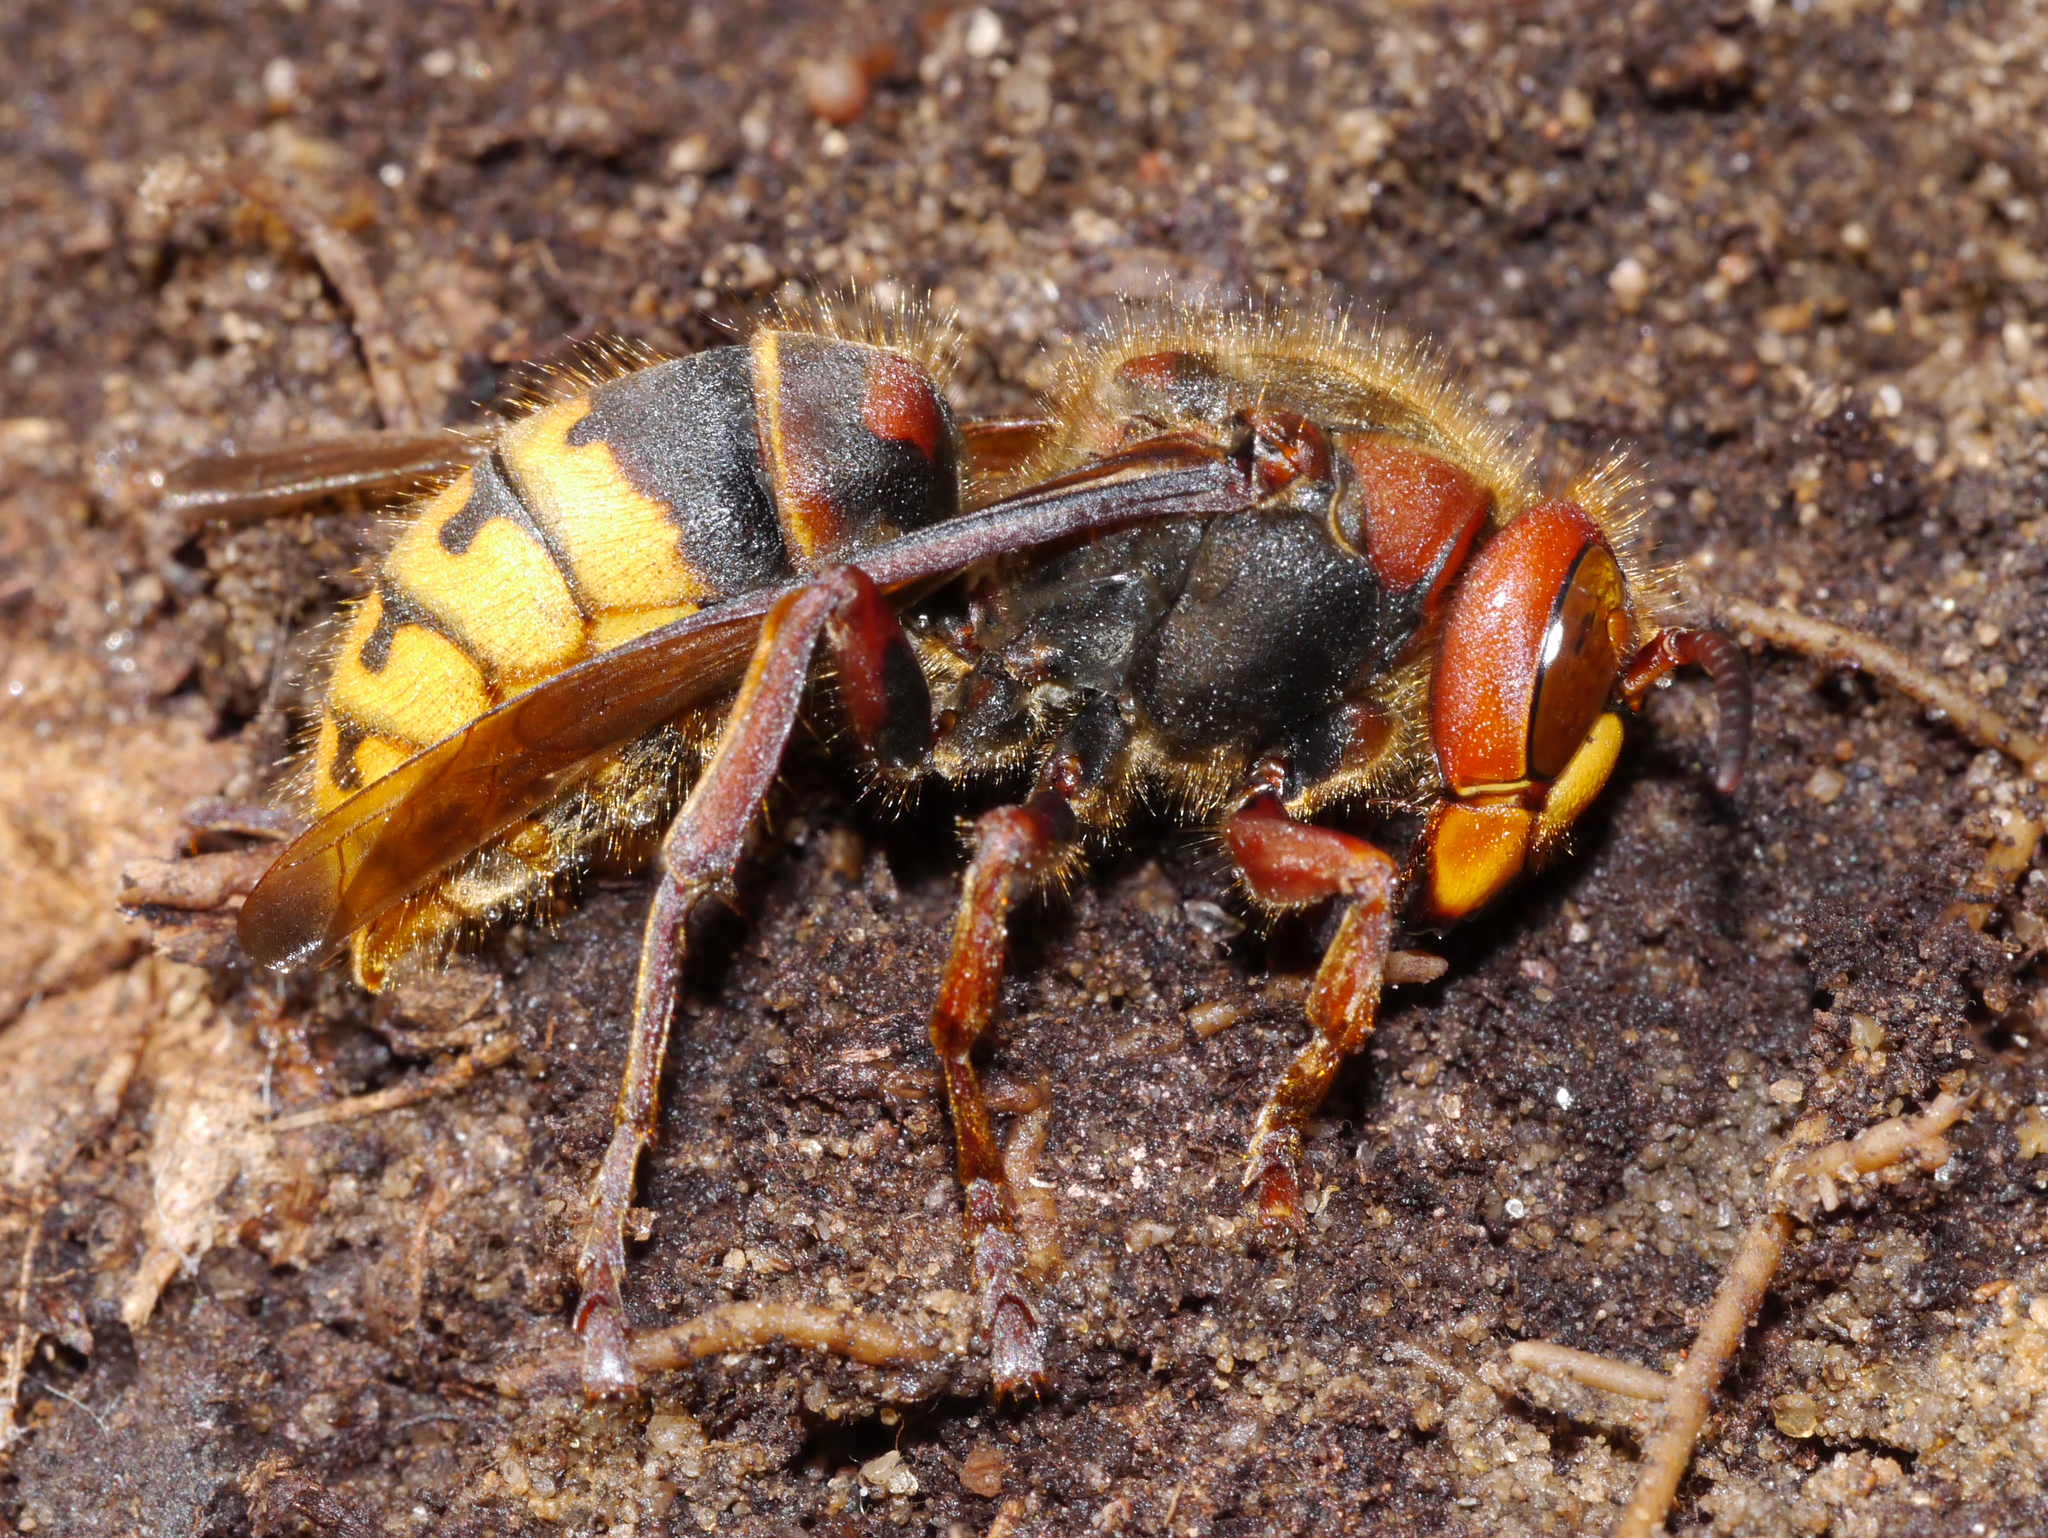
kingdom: Animalia
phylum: Arthropoda
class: Insecta
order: Hymenoptera
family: Vespidae
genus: Vespa
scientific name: Vespa crabro
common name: Hornet
